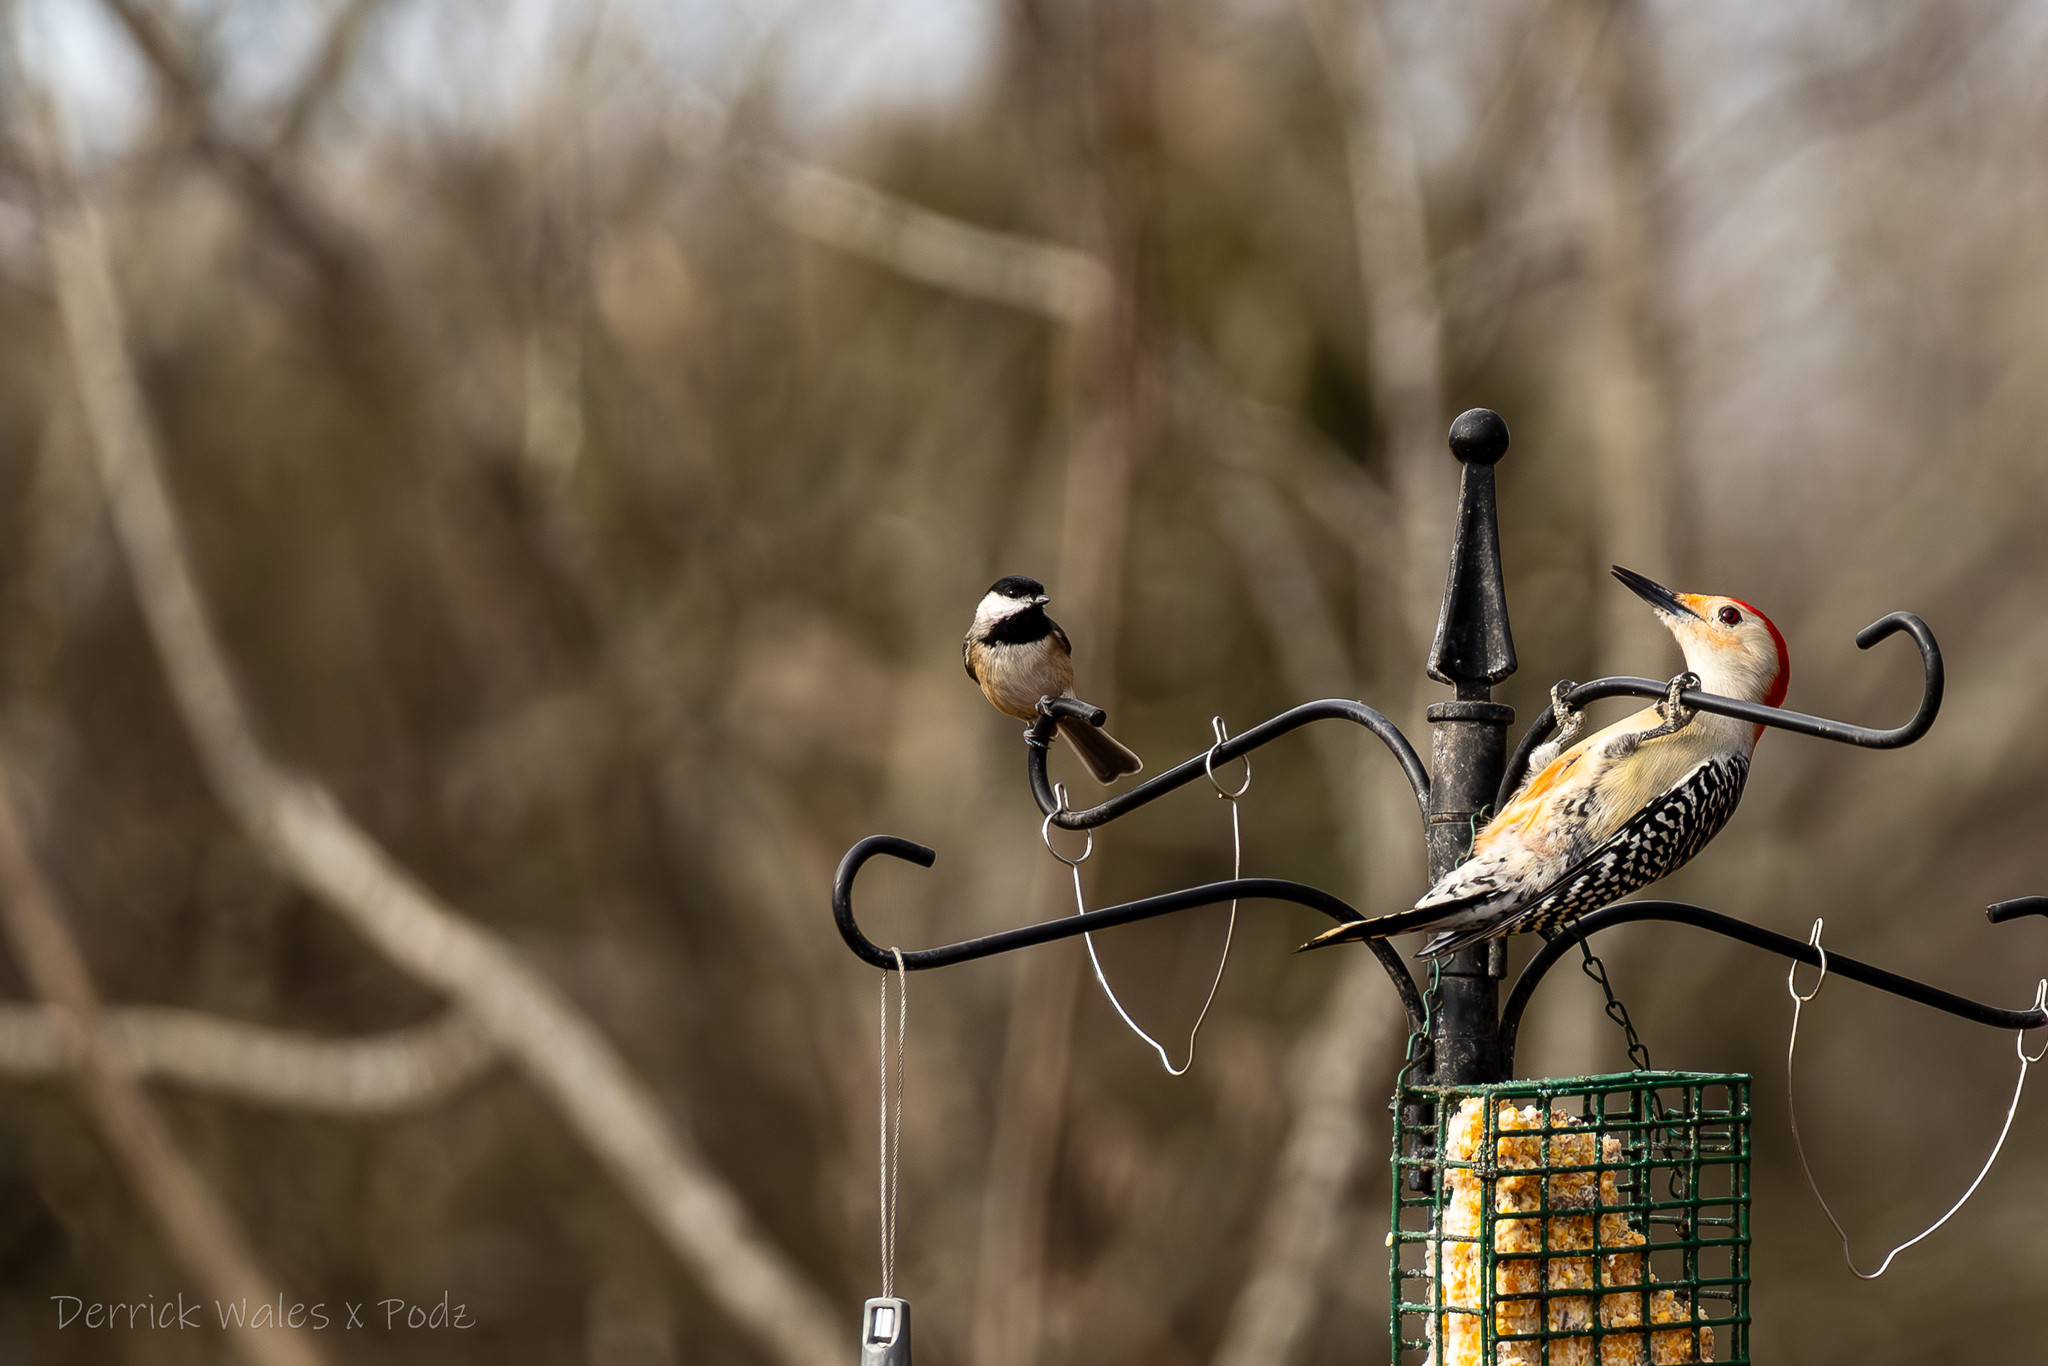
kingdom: Animalia
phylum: Chordata
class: Aves
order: Passeriformes
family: Paridae
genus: Poecile
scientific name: Poecile carolinensis
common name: Carolina chickadee
